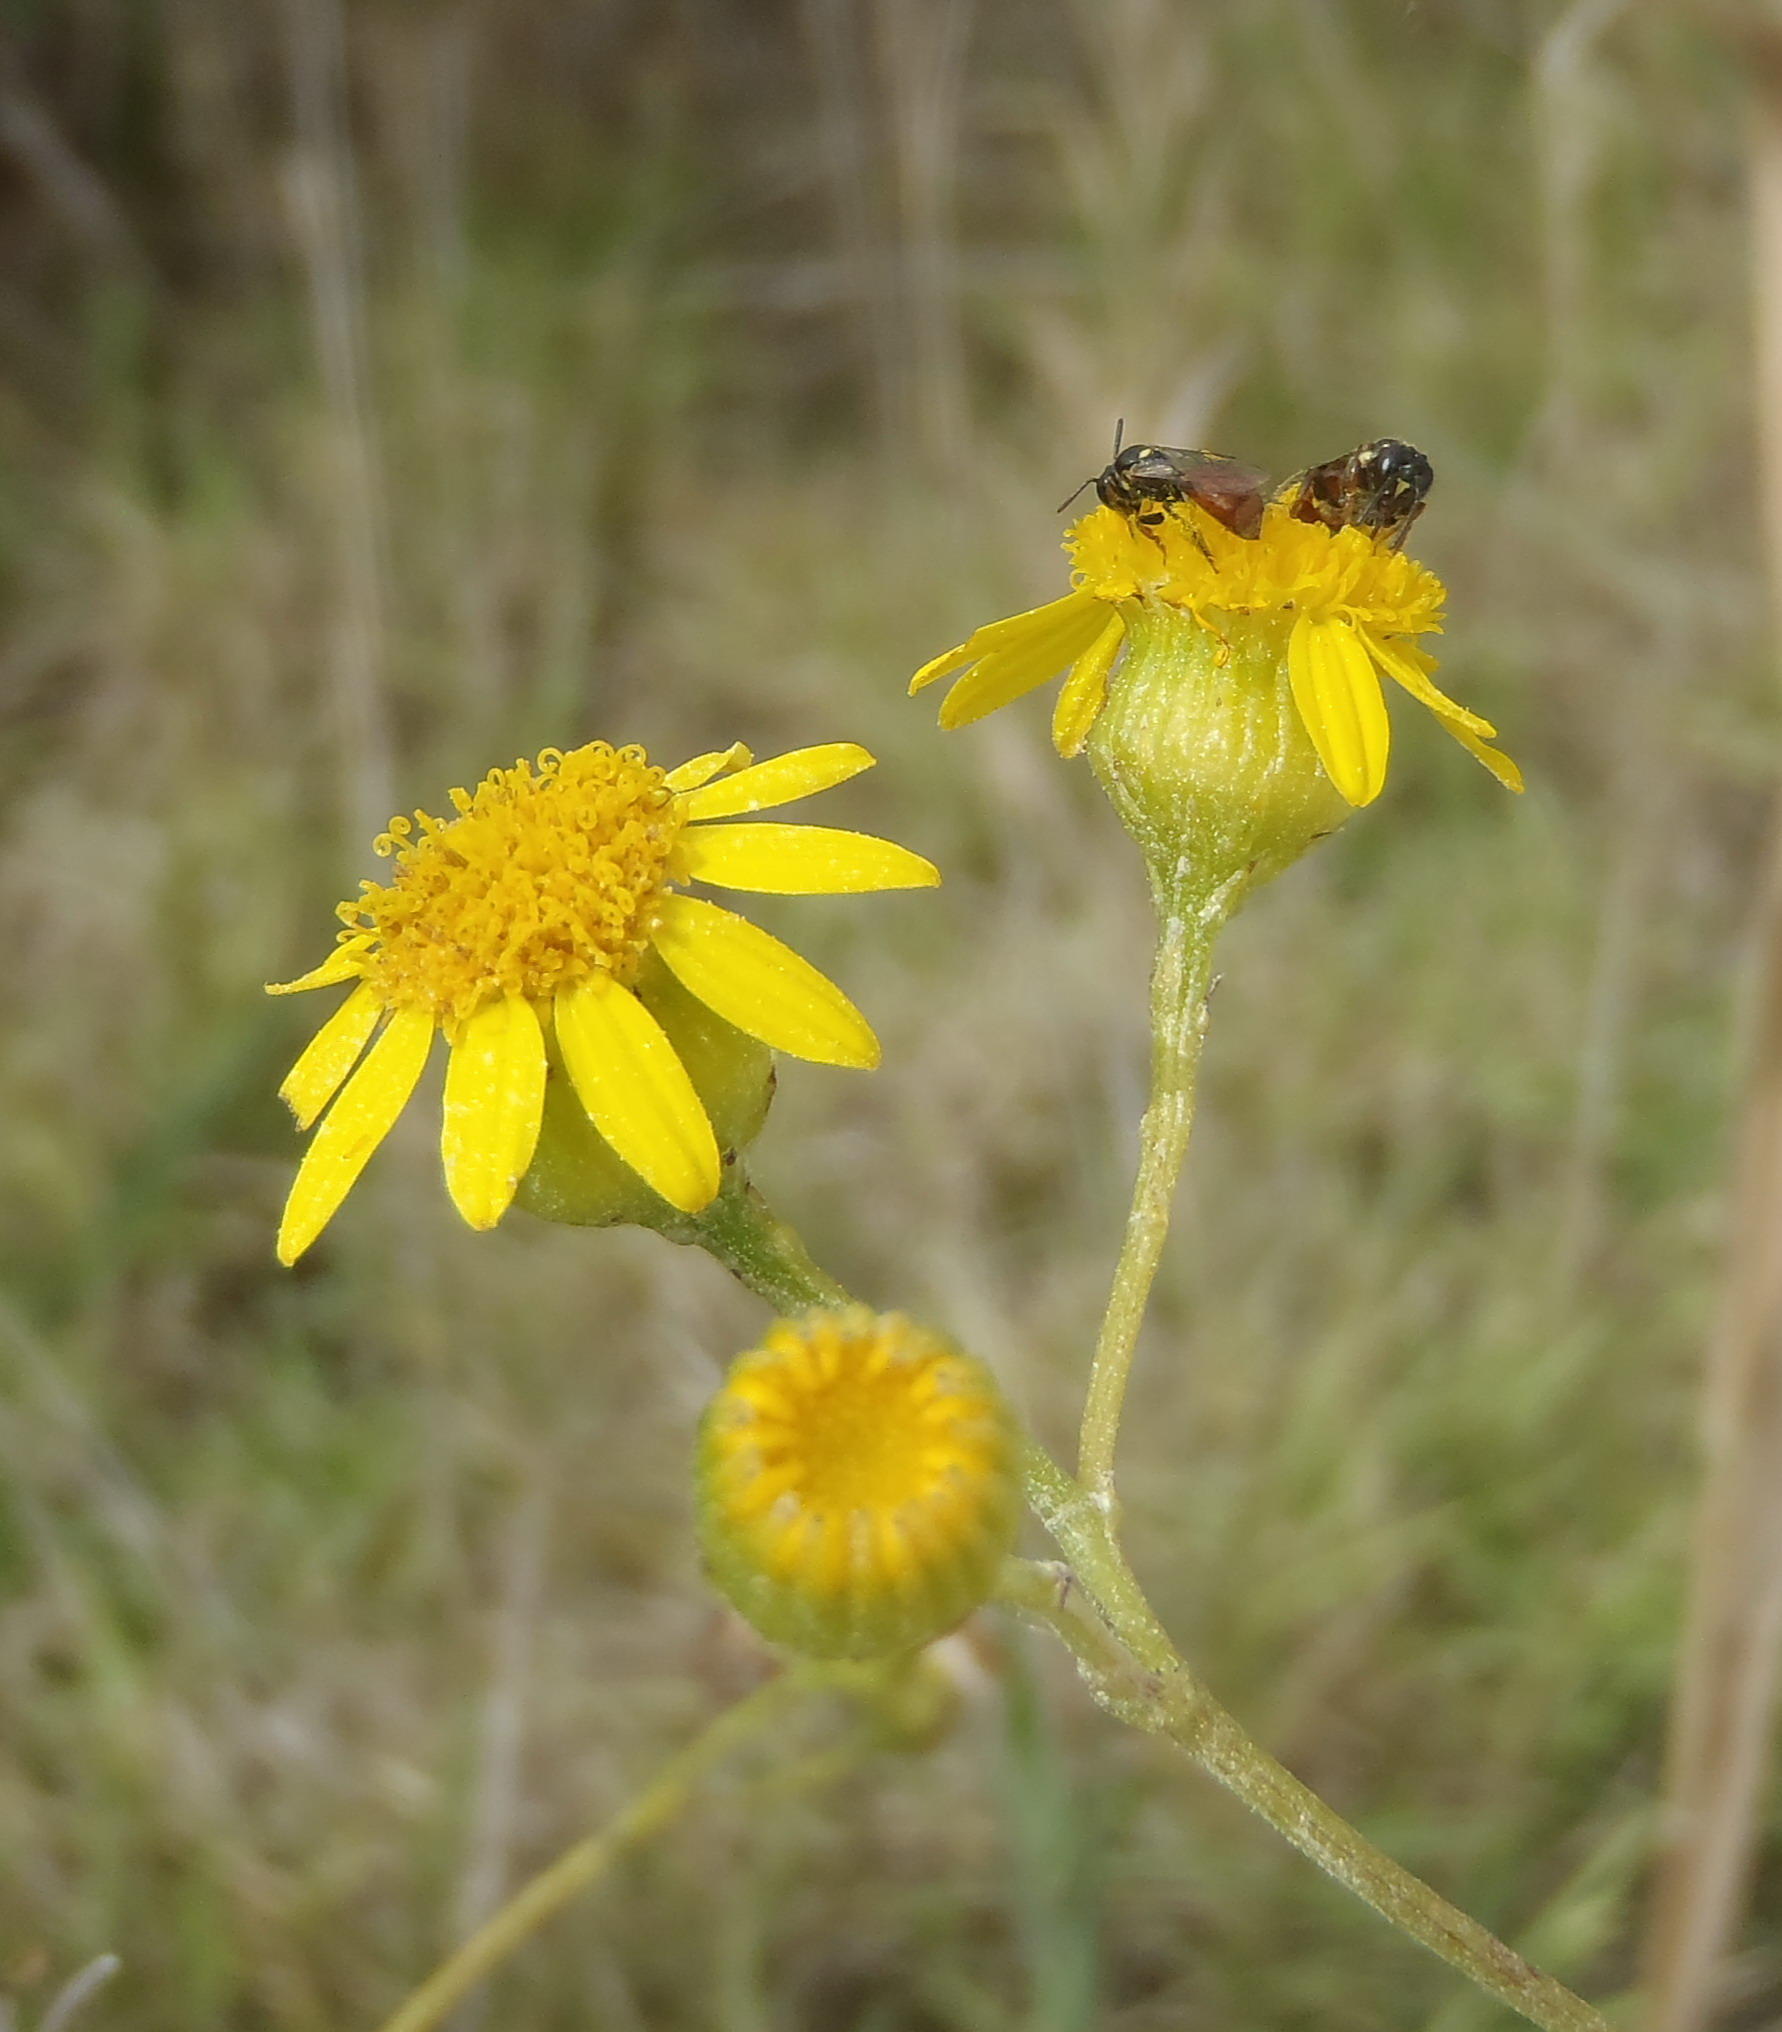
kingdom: Plantae
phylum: Tracheophyta
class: Magnoliopsida
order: Asterales
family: Asteraceae
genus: Senecio
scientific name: Senecio ilicifolius
